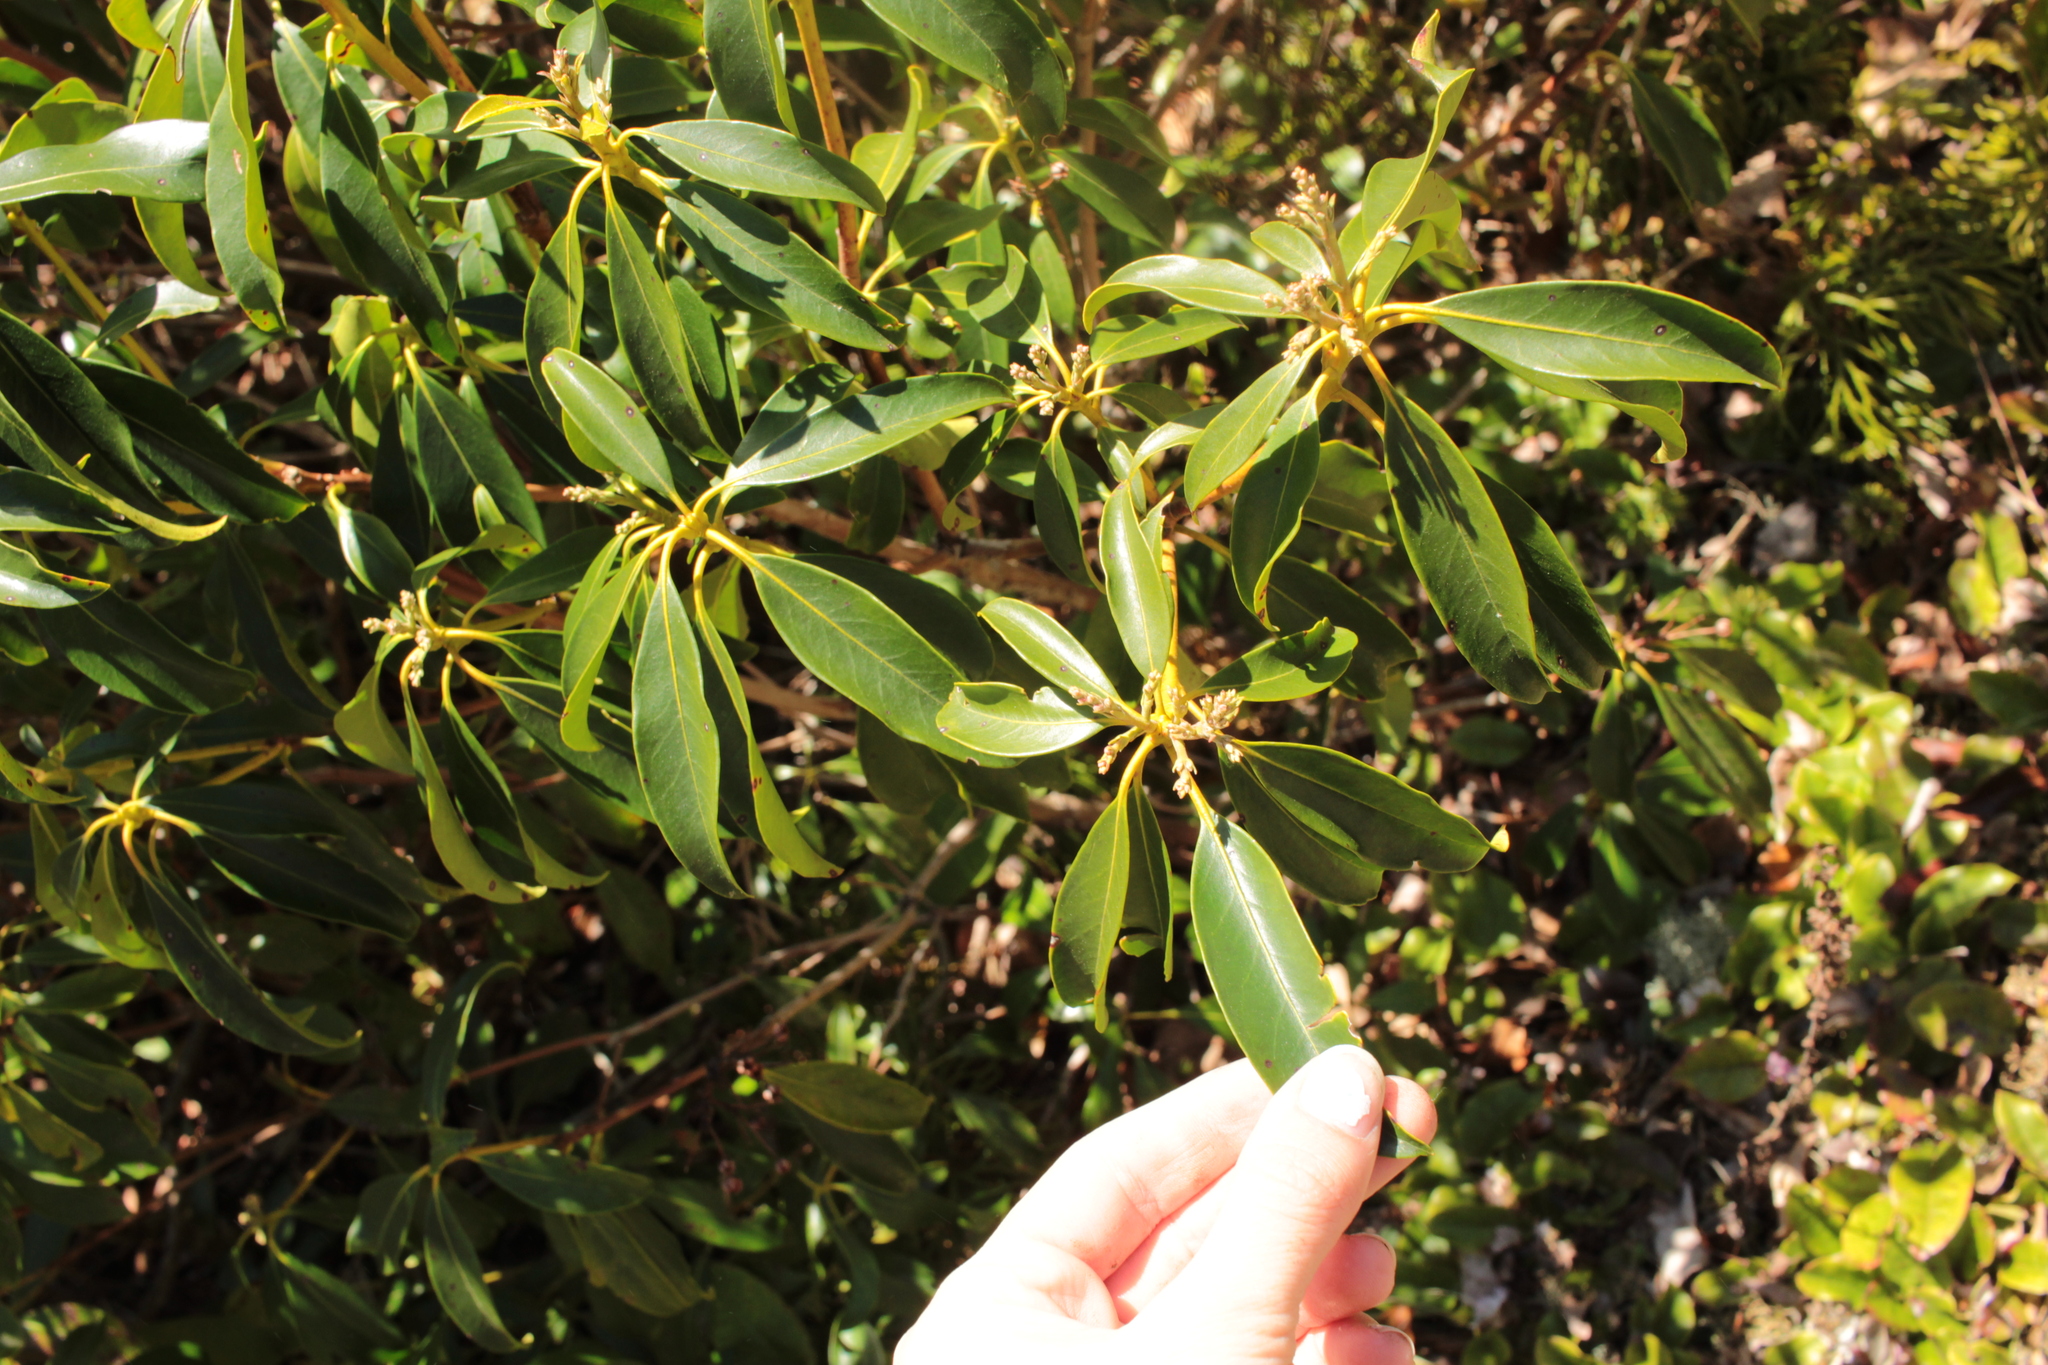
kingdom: Plantae
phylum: Tracheophyta
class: Magnoliopsida
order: Ericales
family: Ericaceae
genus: Kalmia
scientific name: Kalmia latifolia
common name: Mountain-laurel
